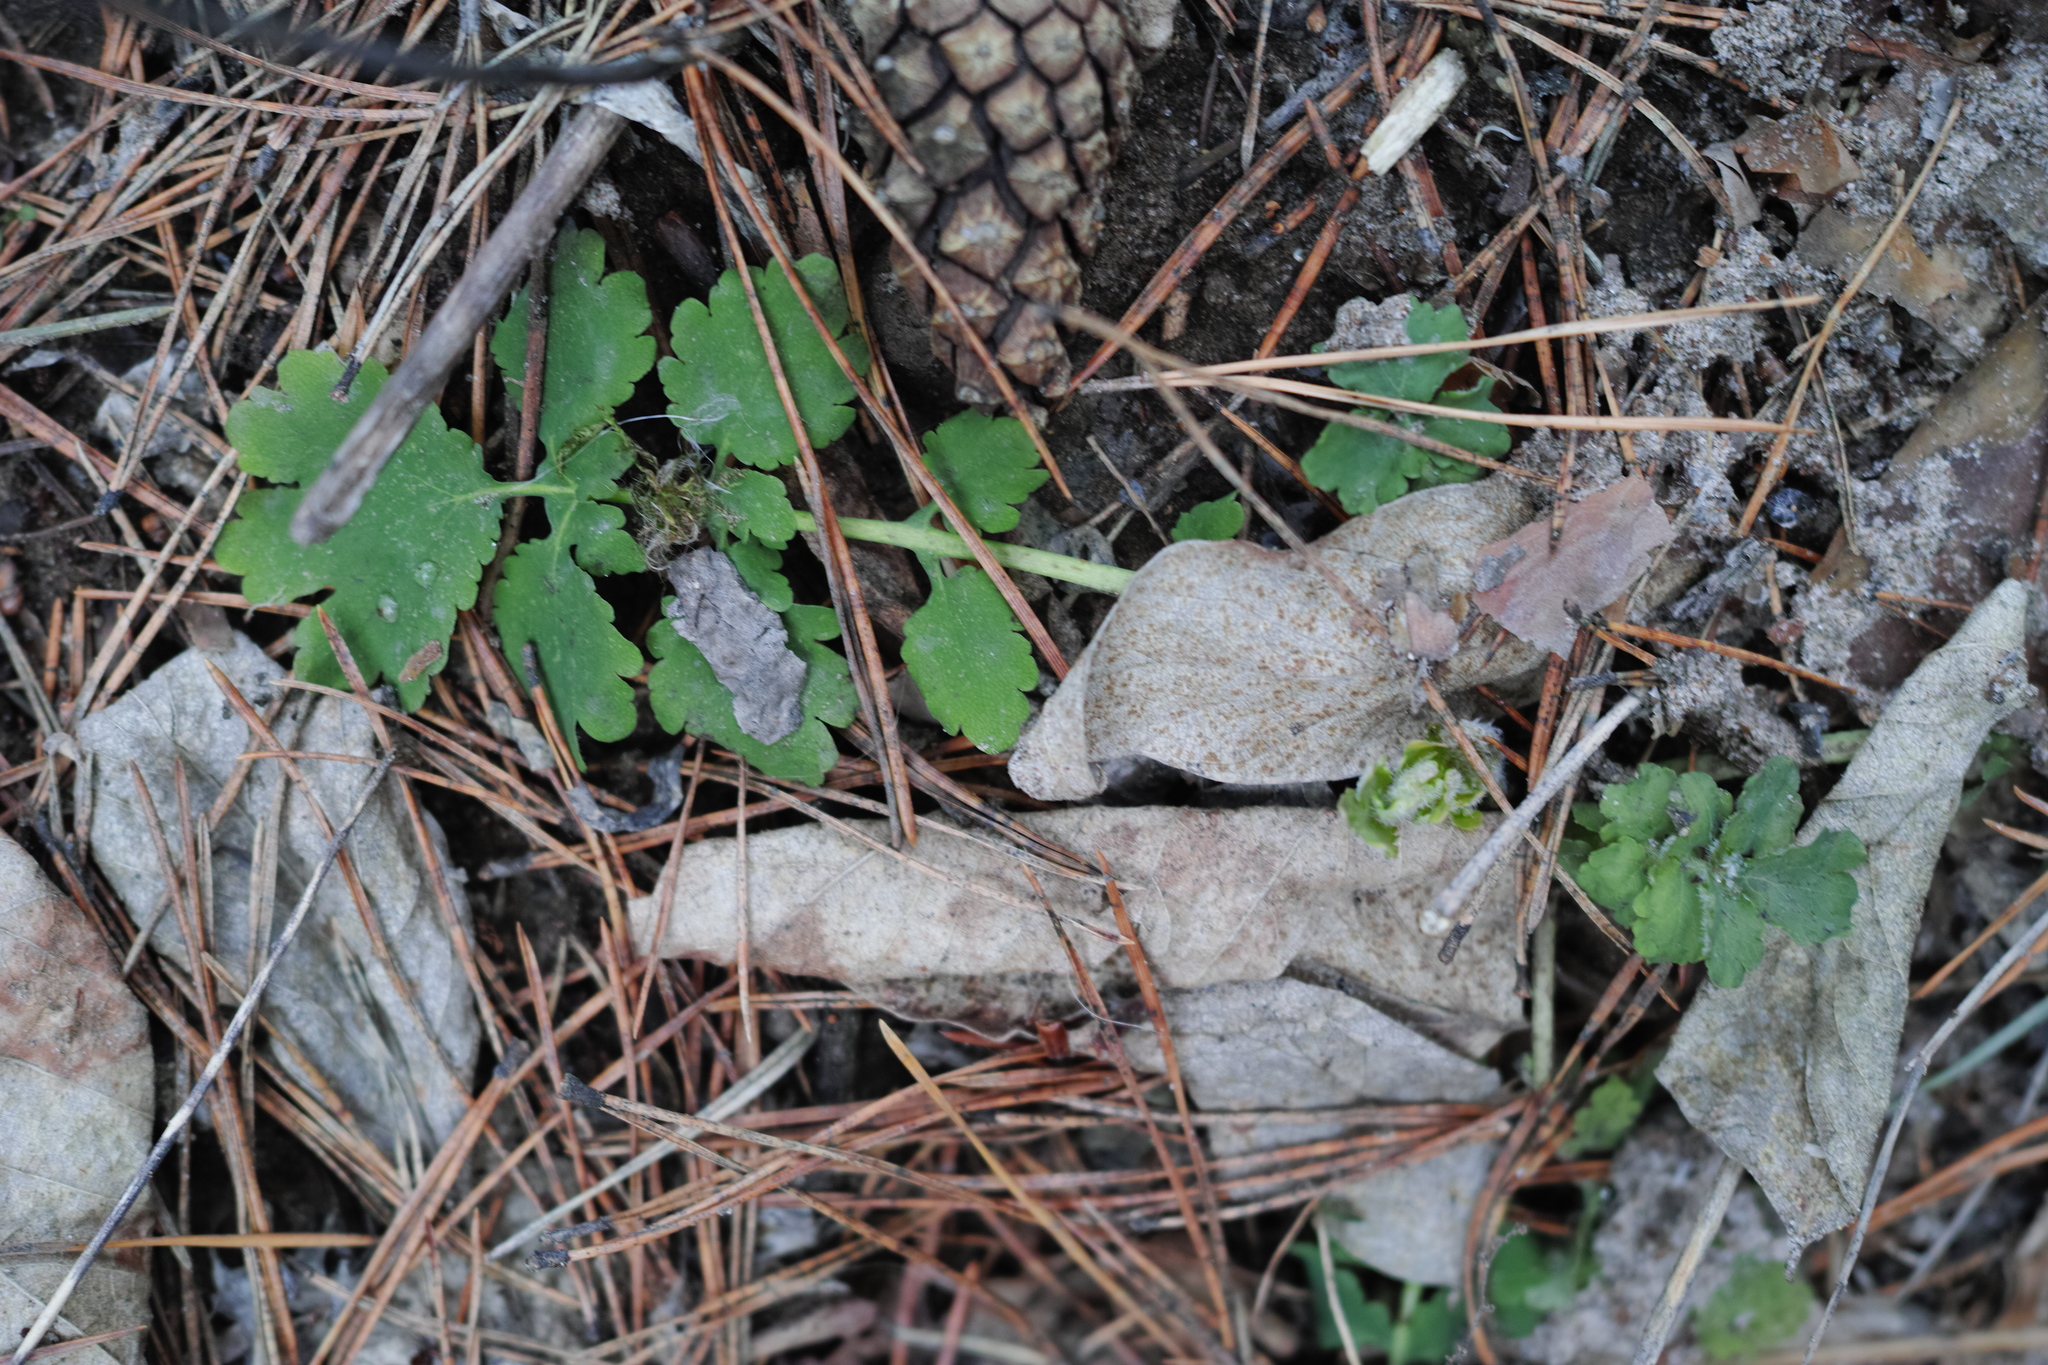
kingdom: Plantae
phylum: Tracheophyta
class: Magnoliopsida
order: Ranunculales
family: Papaveraceae
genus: Chelidonium
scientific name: Chelidonium majus
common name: Greater celandine
